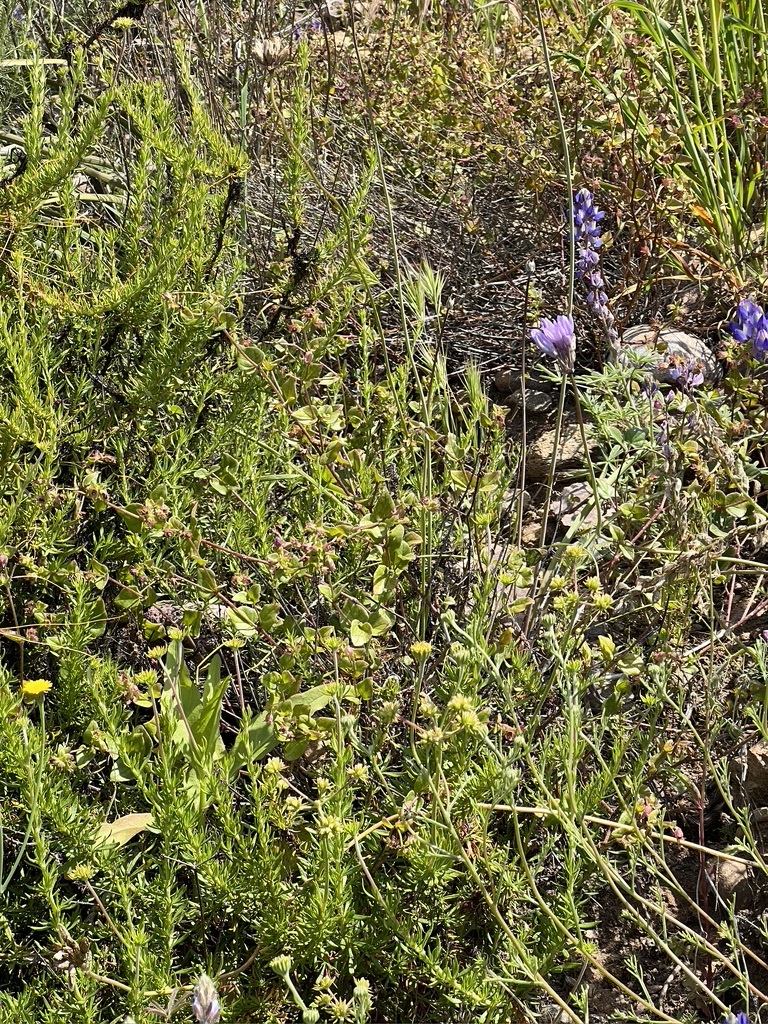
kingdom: Plantae
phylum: Tracheophyta
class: Magnoliopsida
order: Caryophyllales
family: Nyctaginaceae
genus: Mirabilis
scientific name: Mirabilis laevis
